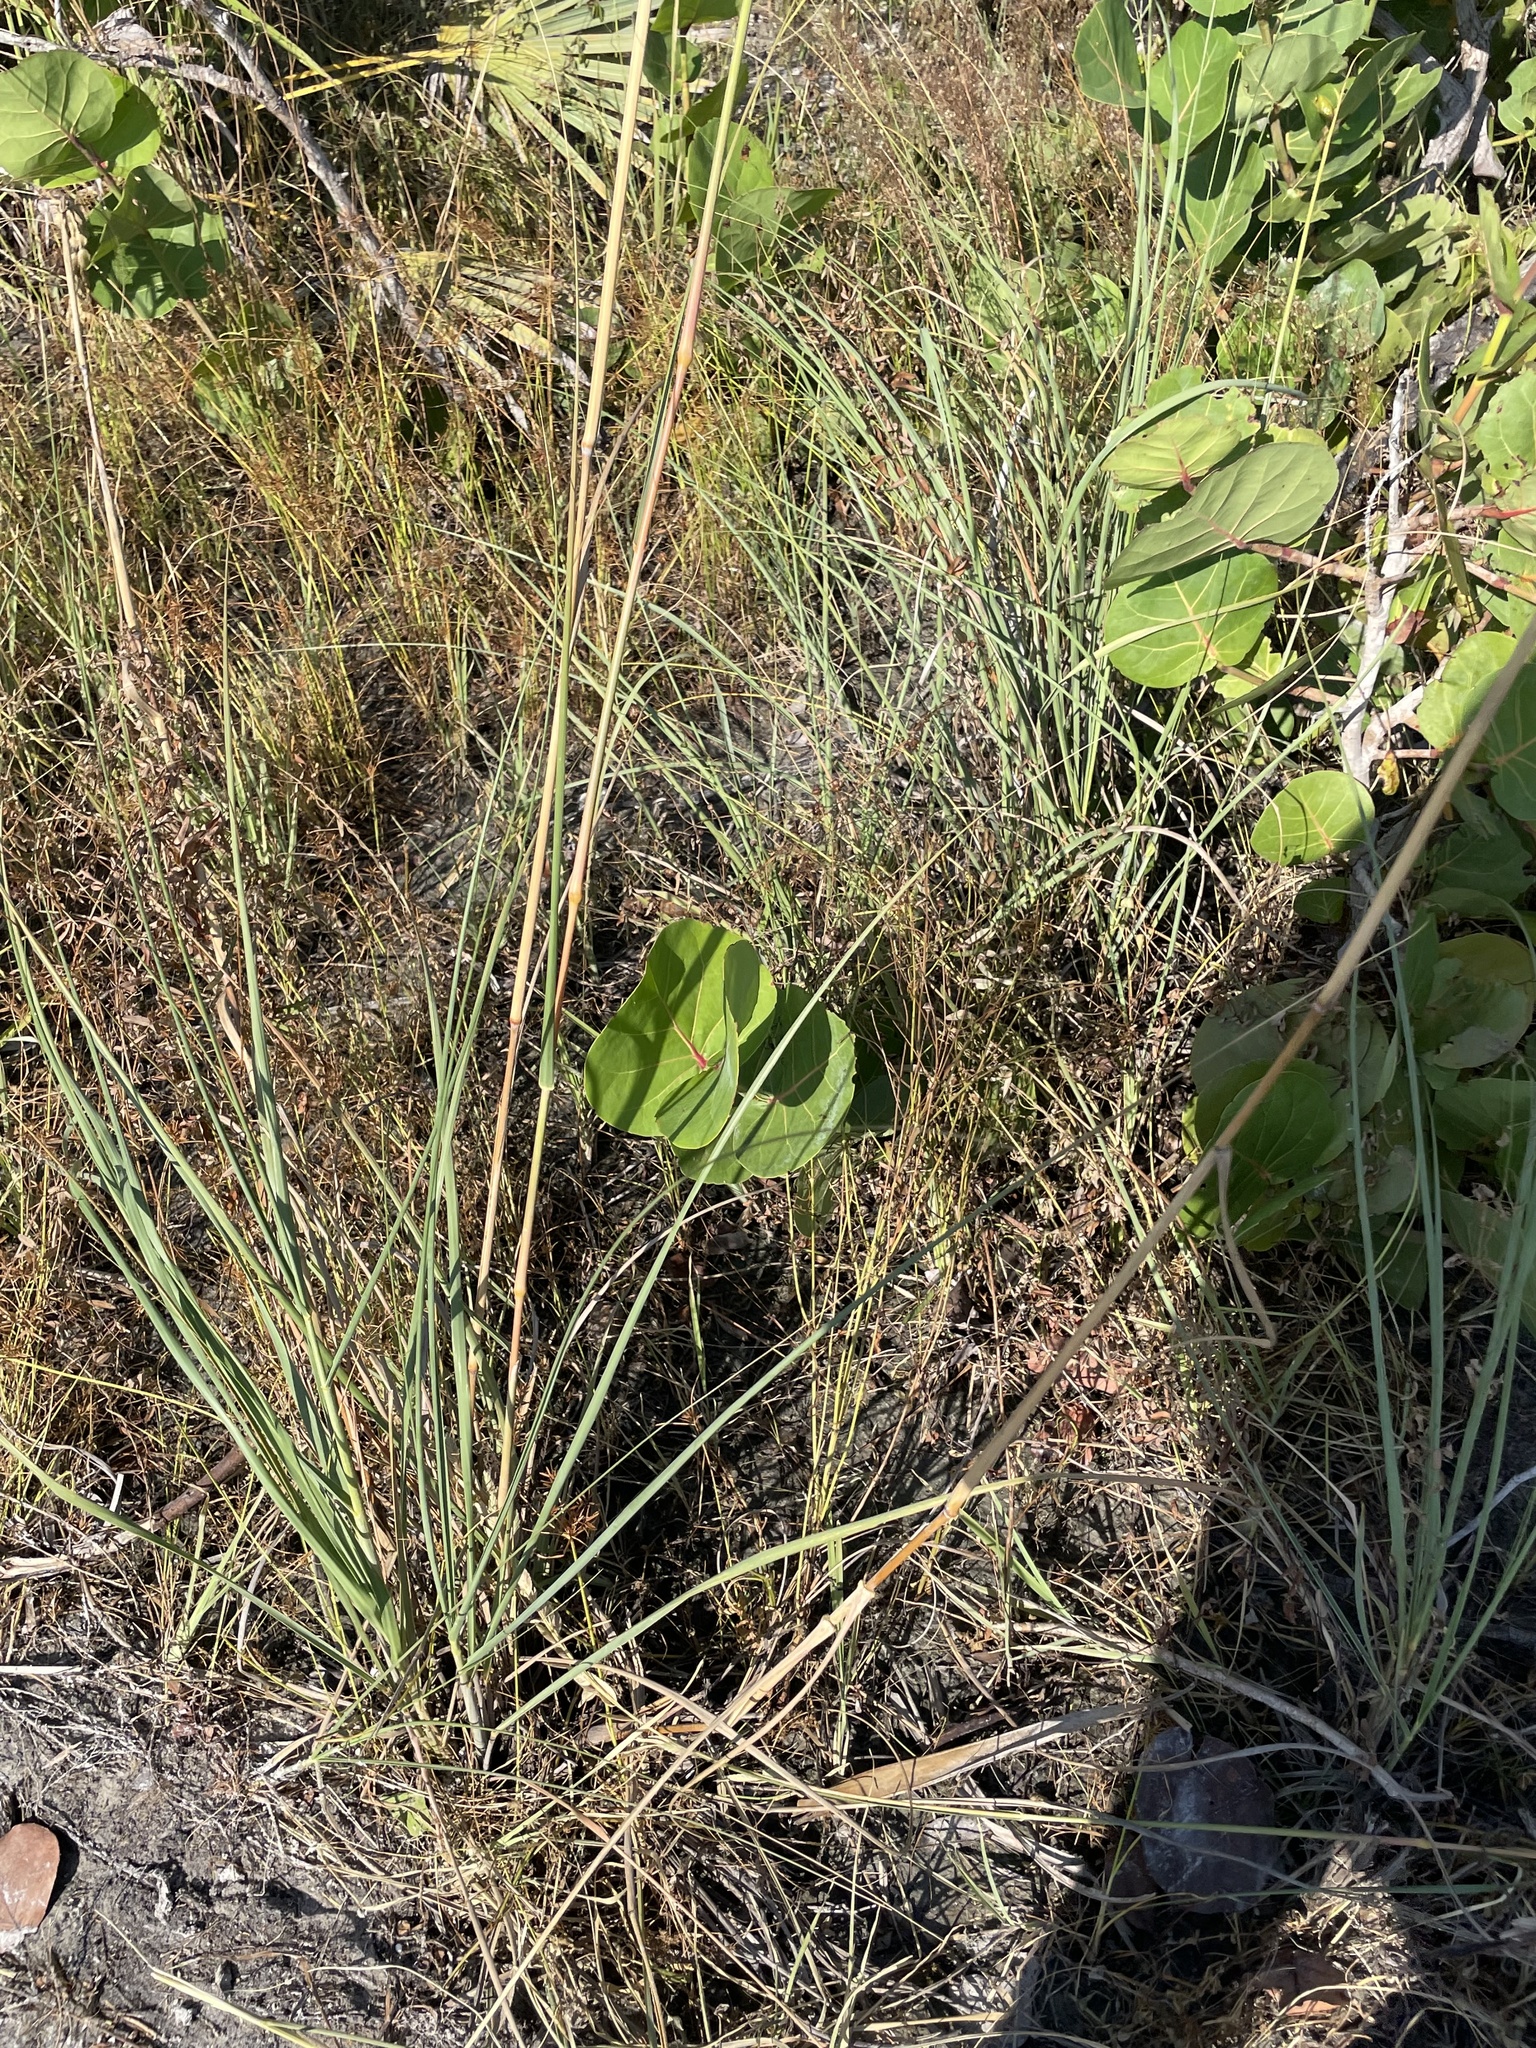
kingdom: Plantae
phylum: Tracheophyta
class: Liliopsida
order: Poales
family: Poaceae
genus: Uniola
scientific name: Uniola paniculata
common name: Seaside-oats
